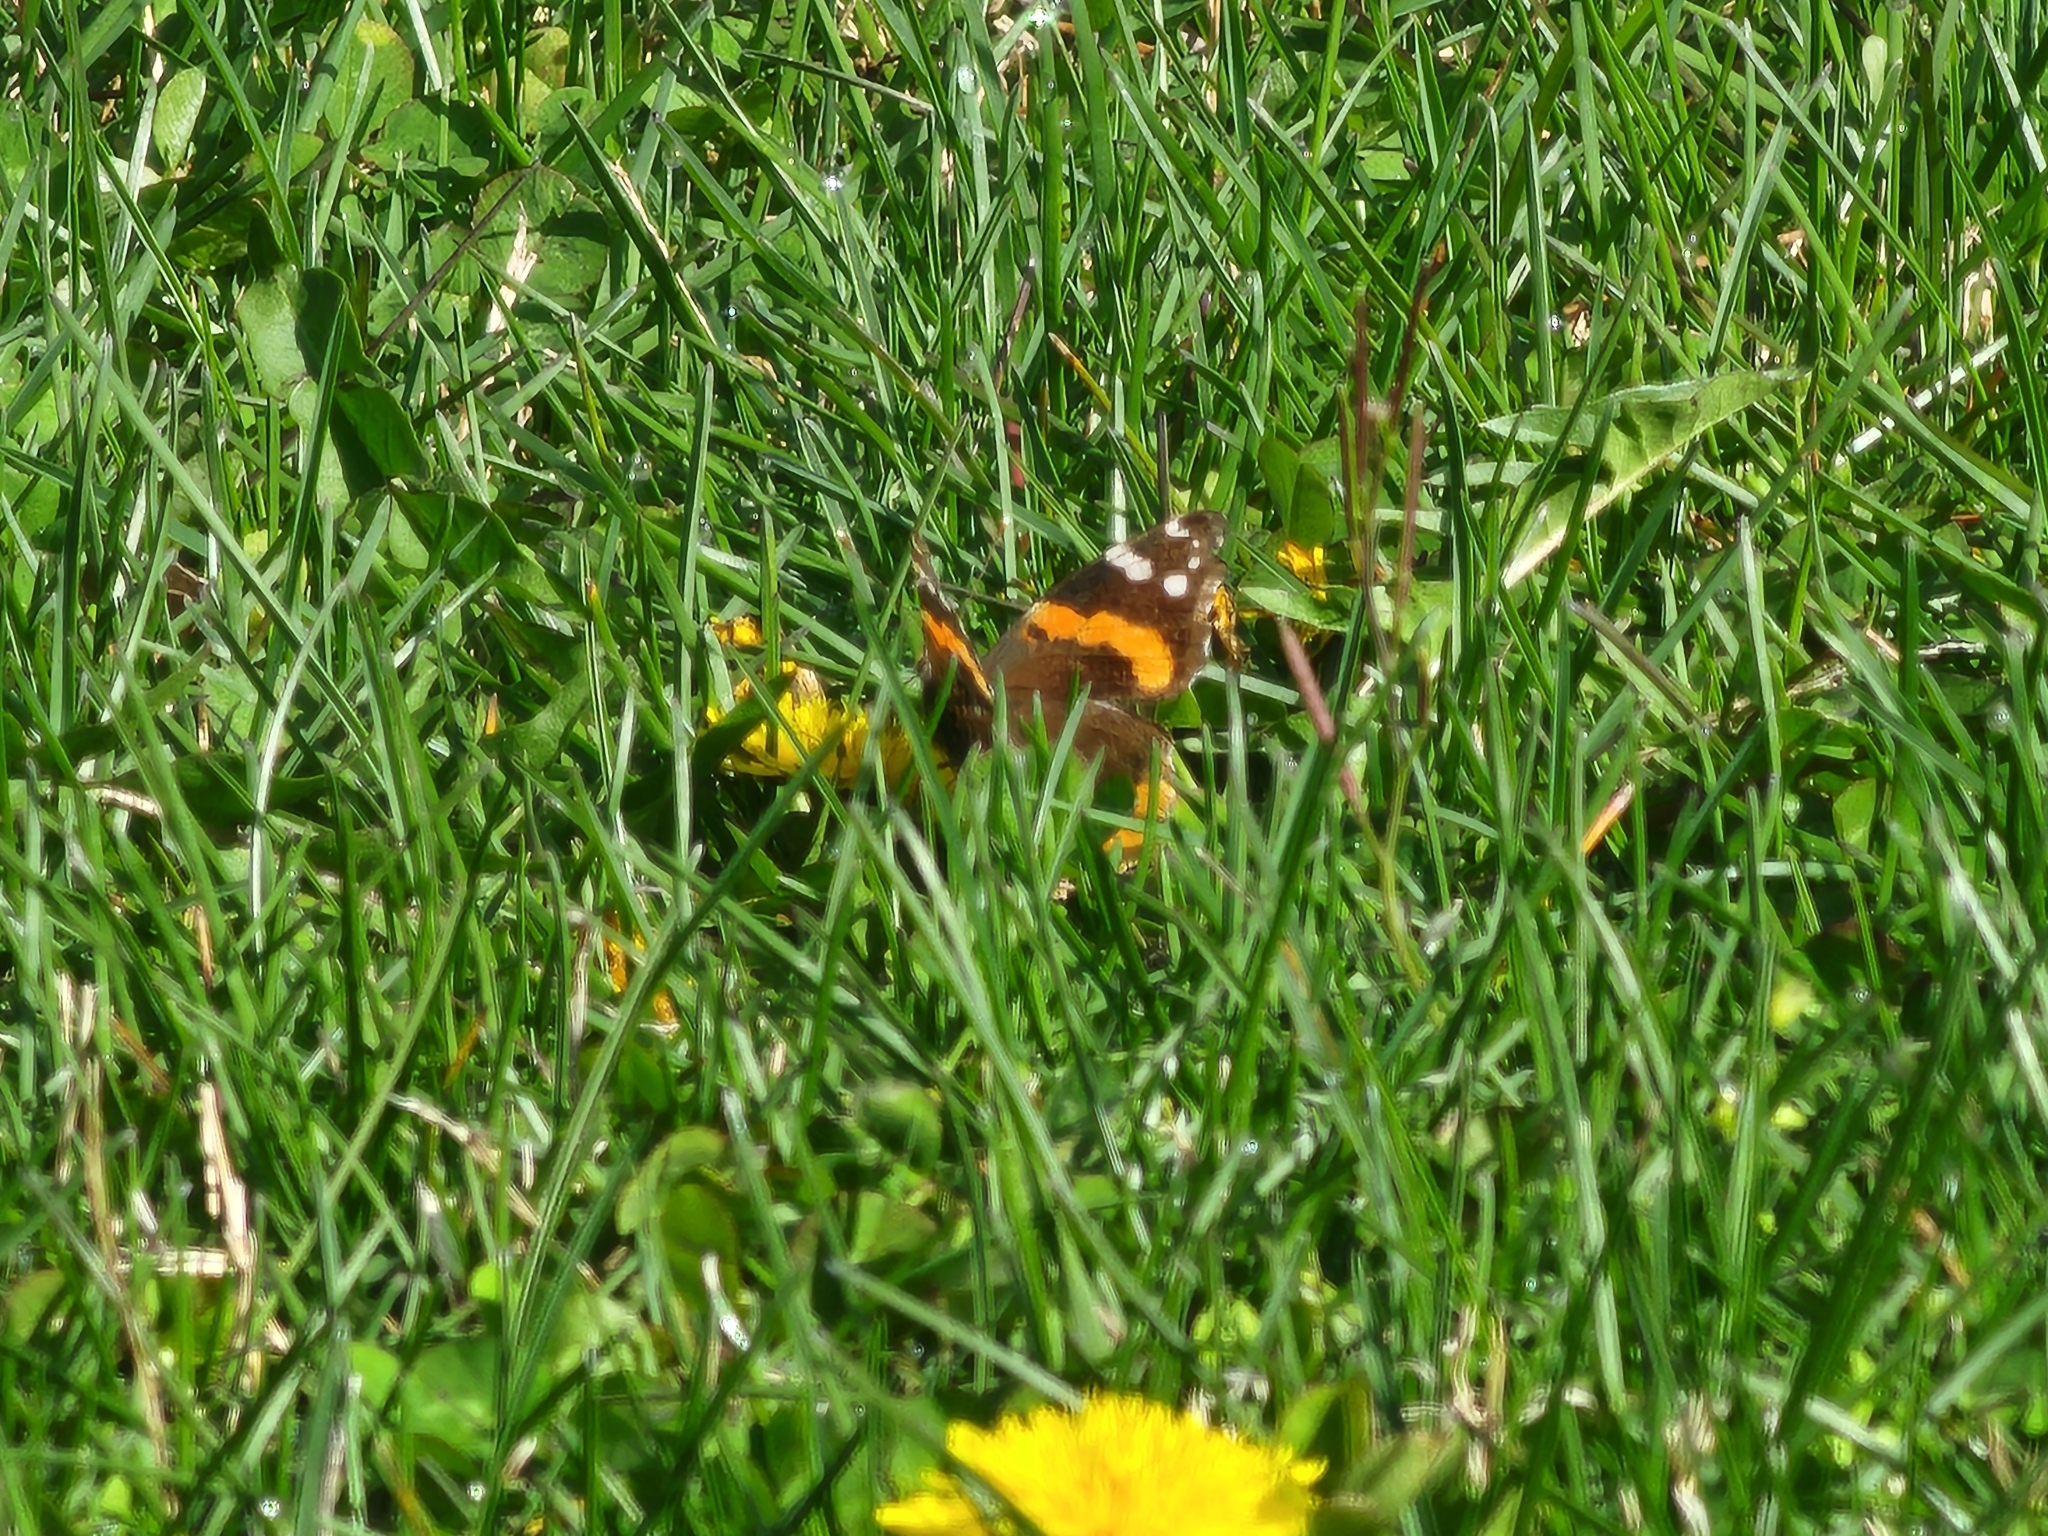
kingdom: Animalia
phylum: Arthropoda
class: Insecta
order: Lepidoptera
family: Nymphalidae
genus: Vanessa
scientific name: Vanessa atalanta
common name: Red admiral
